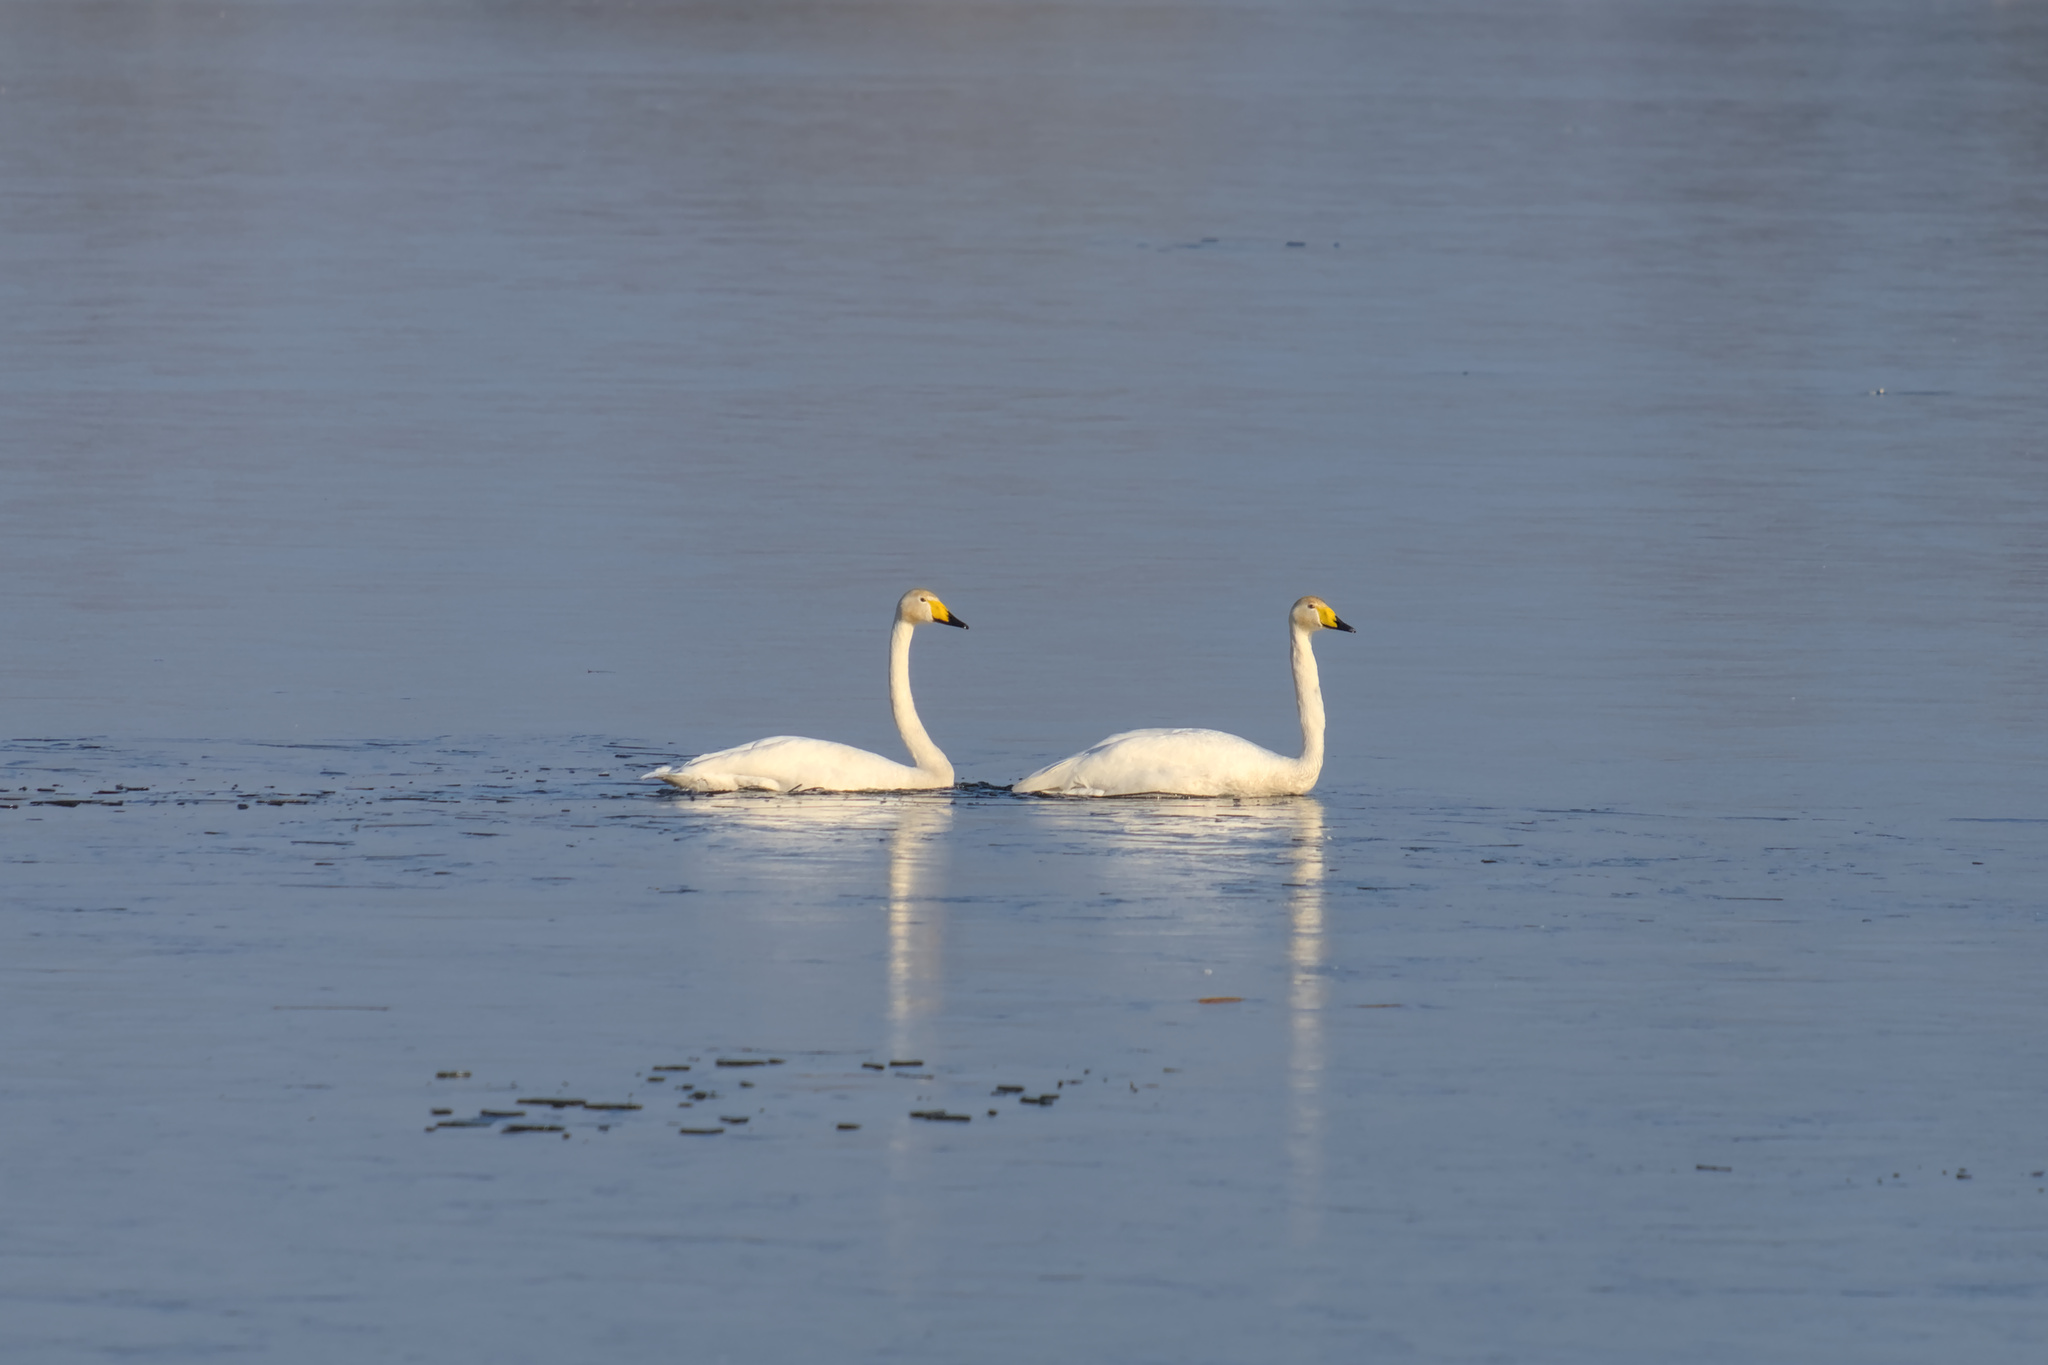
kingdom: Animalia
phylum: Chordata
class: Aves
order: Anseriformes
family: Anatidae
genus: Cygnus
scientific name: Cygnus cygnus
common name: Whooper swan
